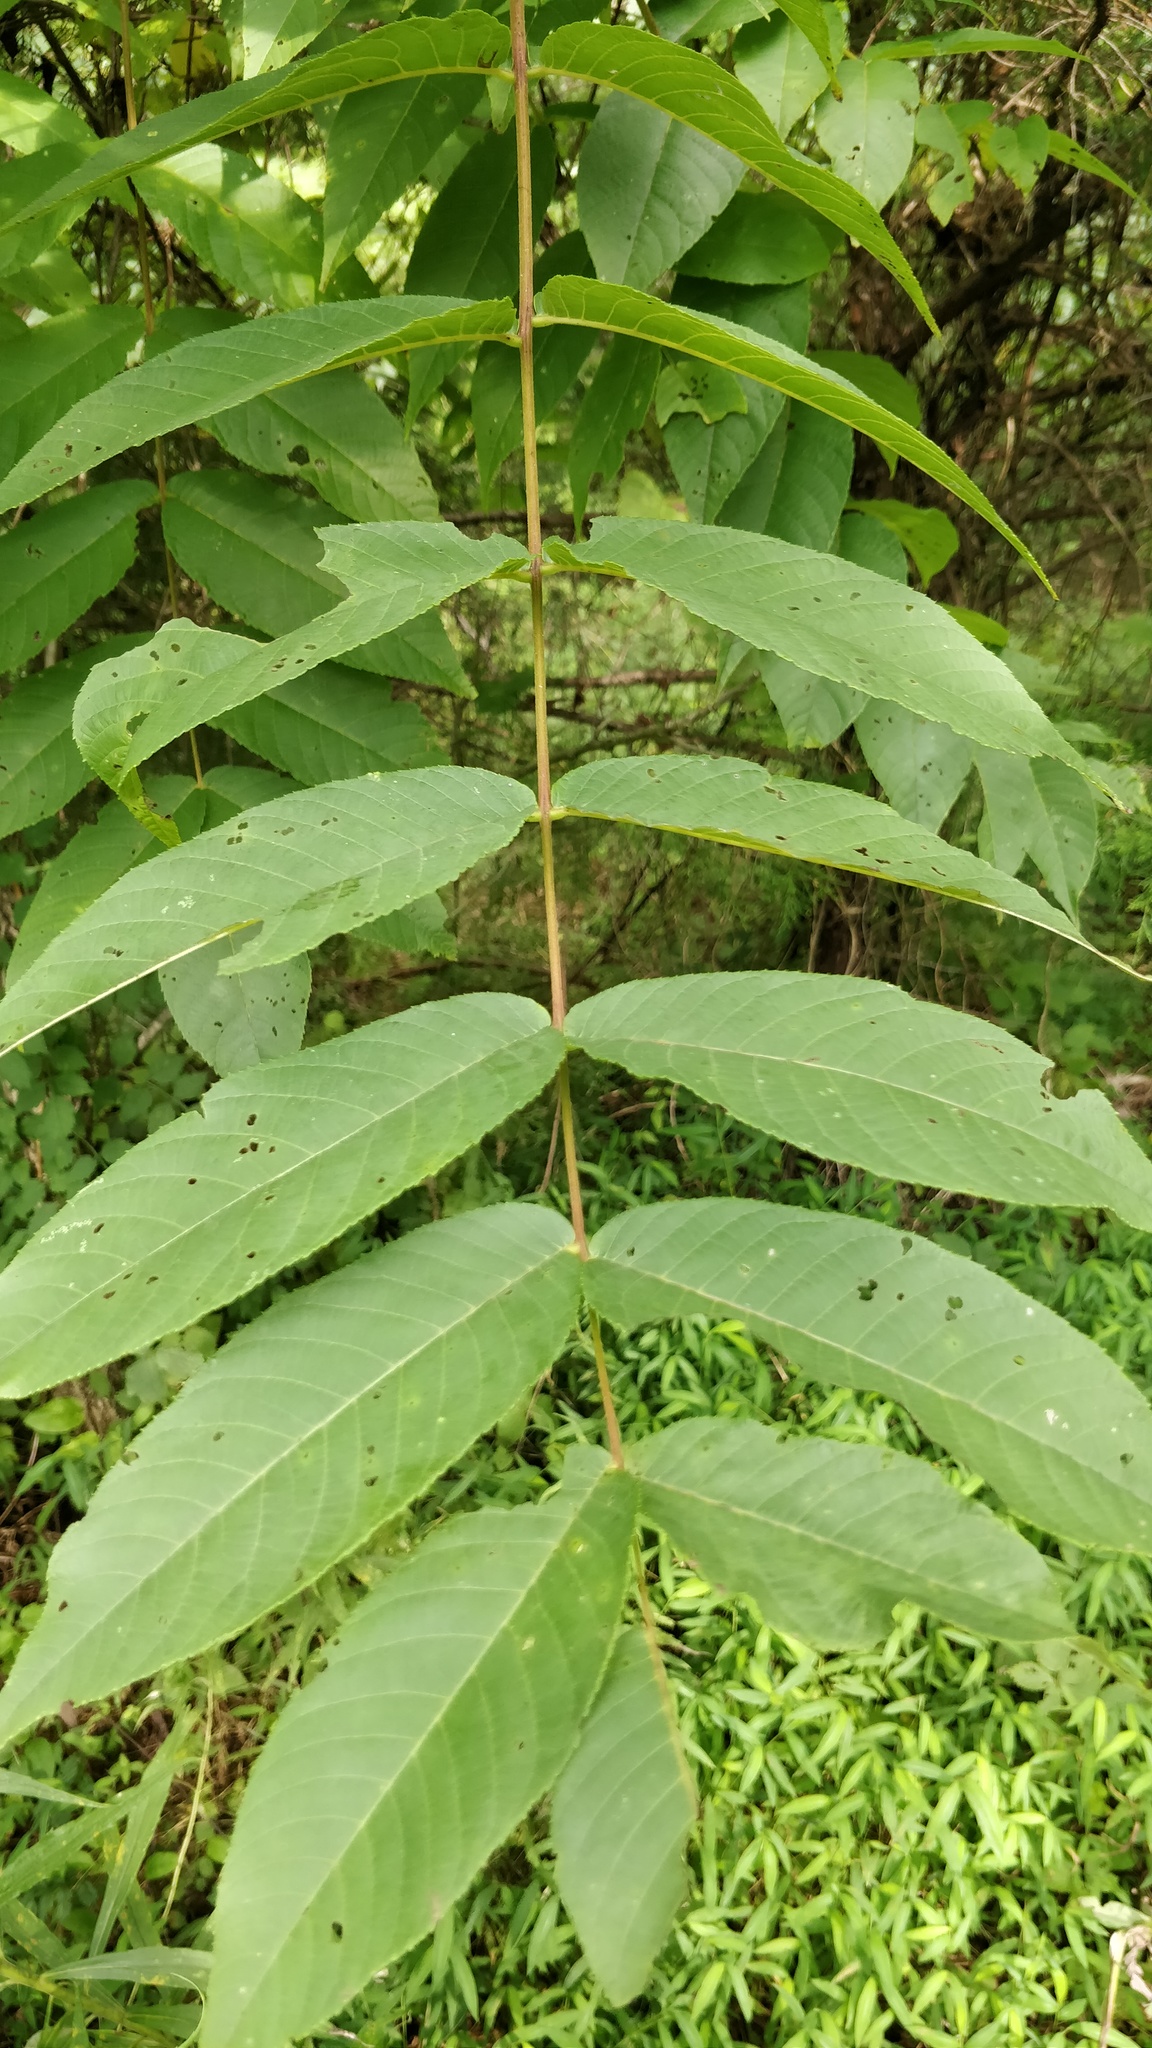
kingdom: Plantae
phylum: Tracheophyta
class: Magnoliopsida
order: Fagales
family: Juglandaceae
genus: Juglans
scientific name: Juglans nigra
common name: Black walnut
